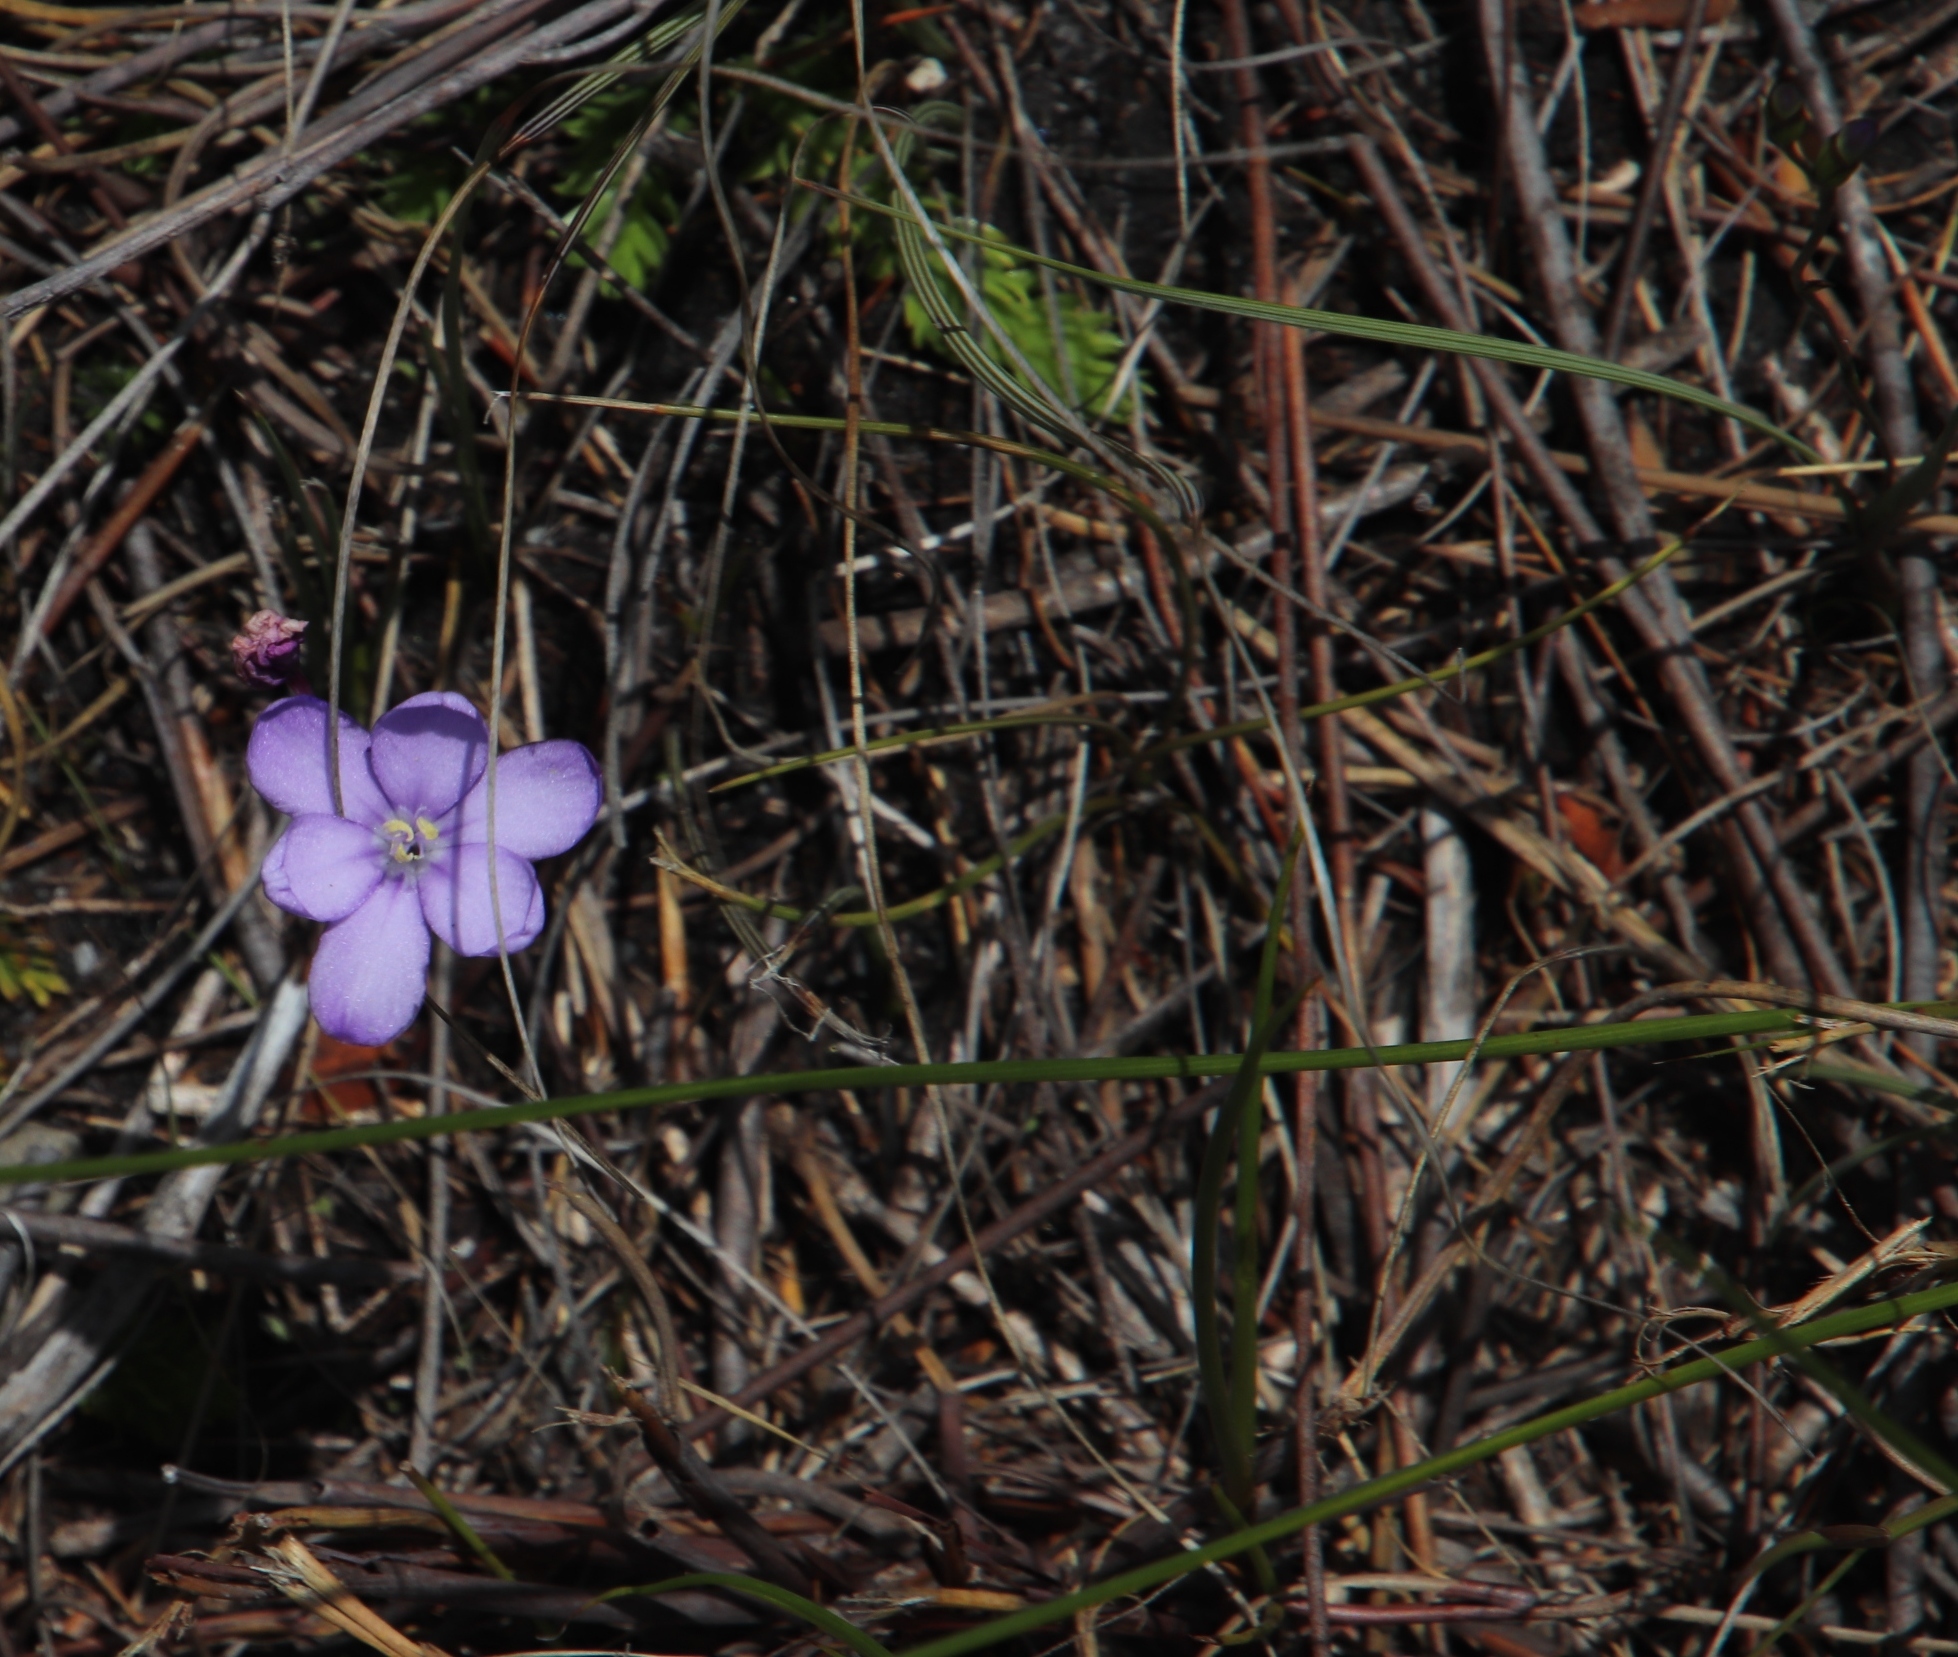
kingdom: Plantae
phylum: Tracheophyta
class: Liliopsida
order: Asparagales
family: Iridaceae
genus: Thereianthus
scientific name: Thereianthus juncifolius
